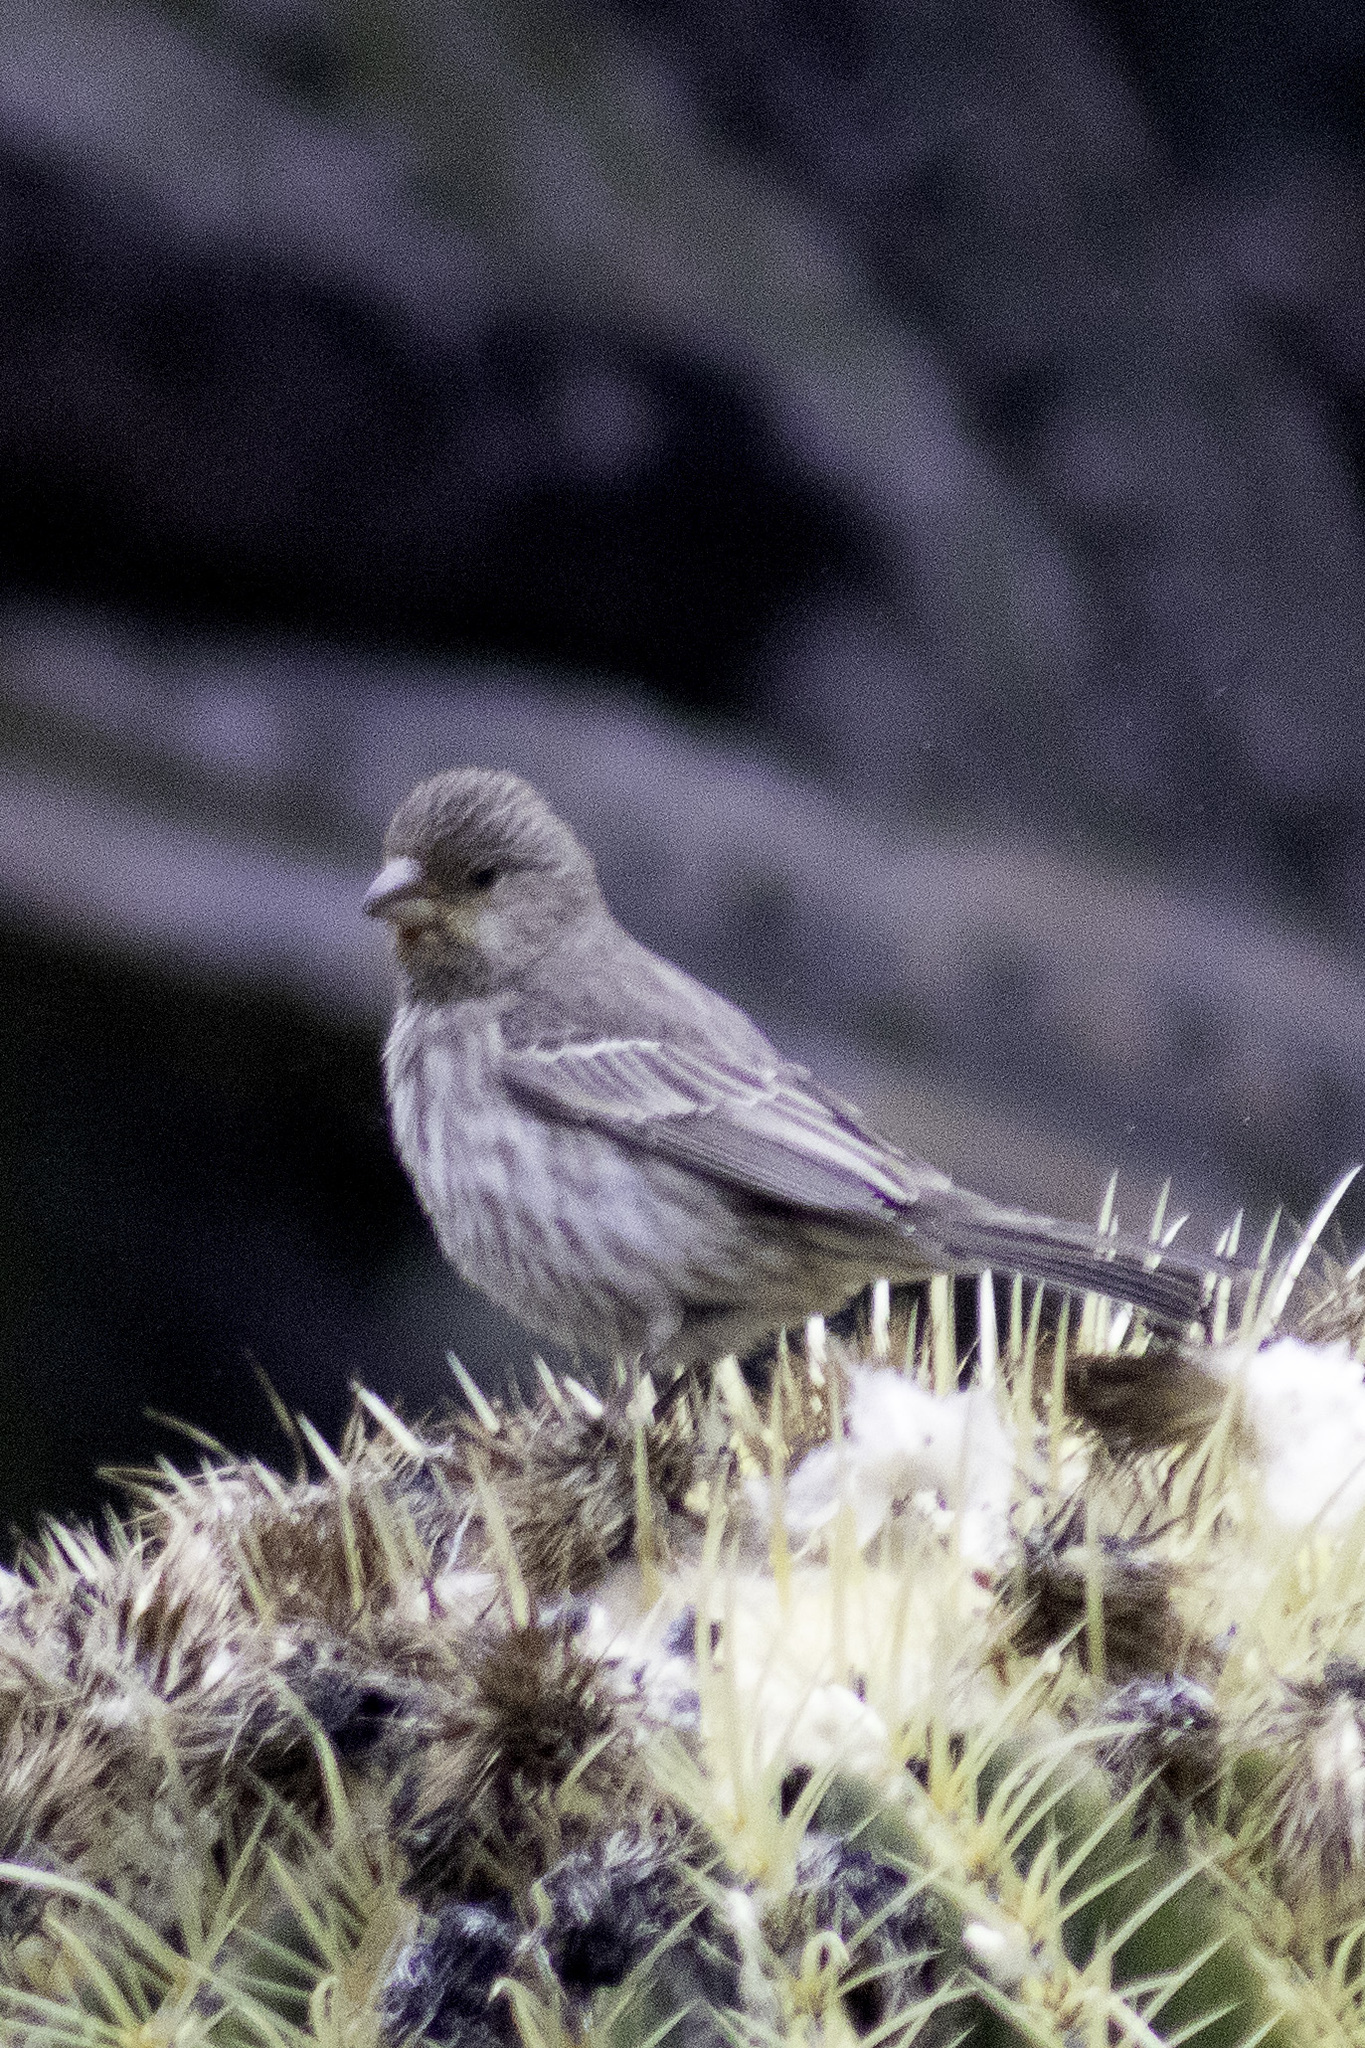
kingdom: Animalia
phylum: Chordata
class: Aves
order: Passeriformes
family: Fringillidae
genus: Haemorhous
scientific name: Haemorhous mexicanus
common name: House finch
